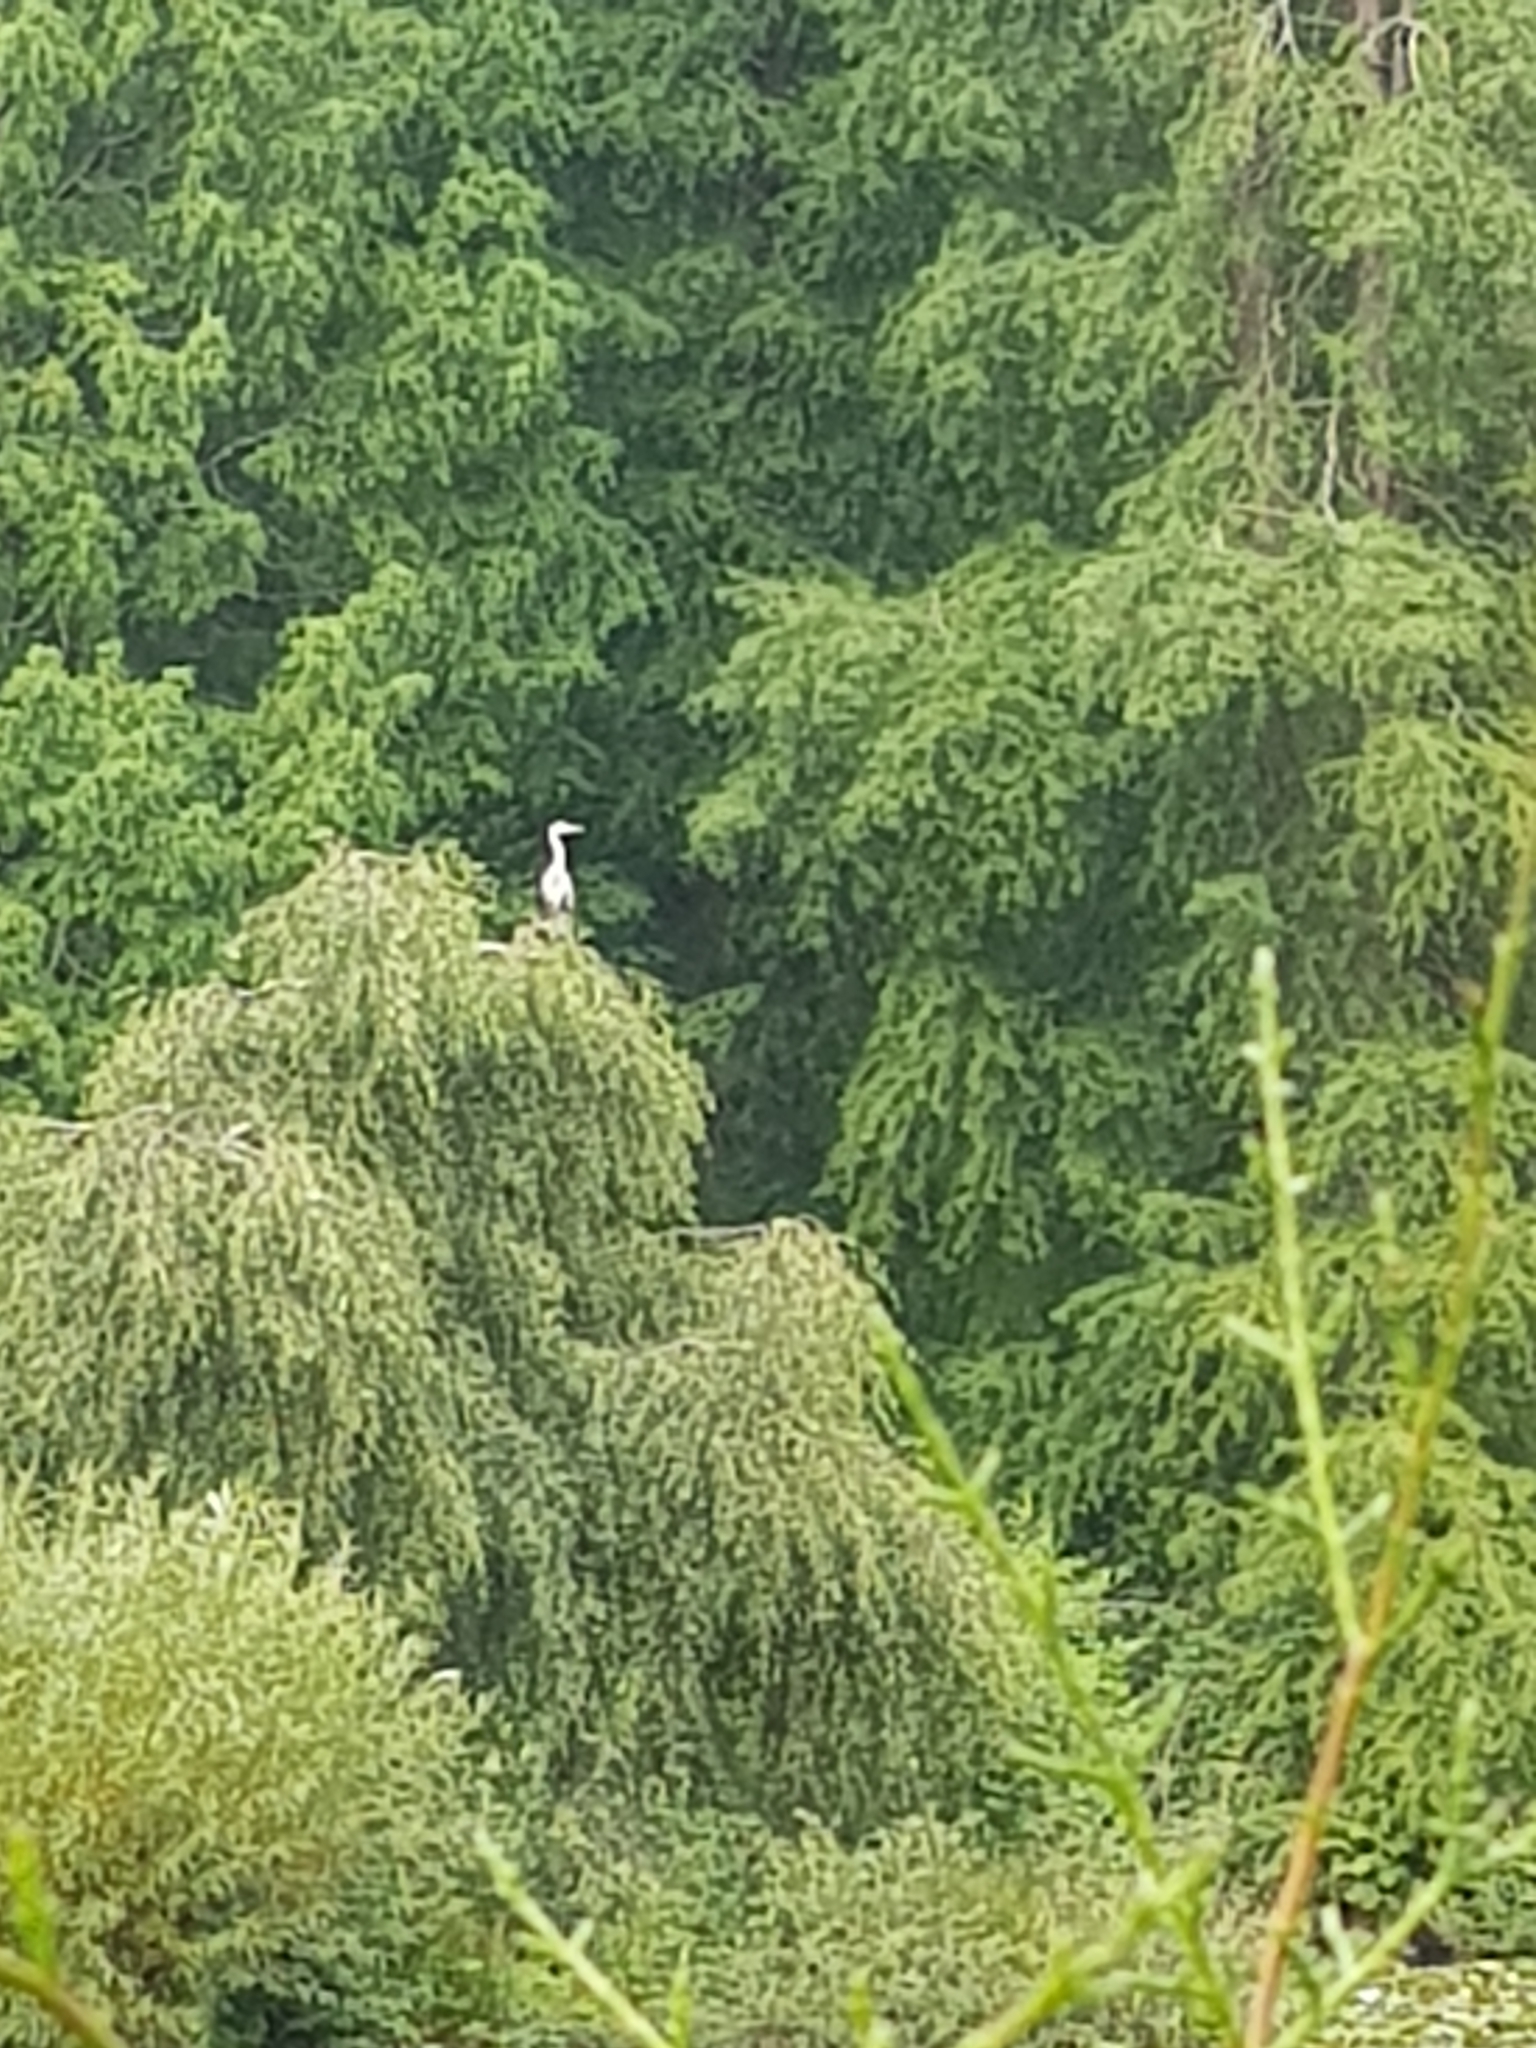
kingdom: Animalia
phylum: Chordata
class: Aves
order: Pelecaniformes
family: Ardeidae
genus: Ardea
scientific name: Ardea cinerea
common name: Grey heron
